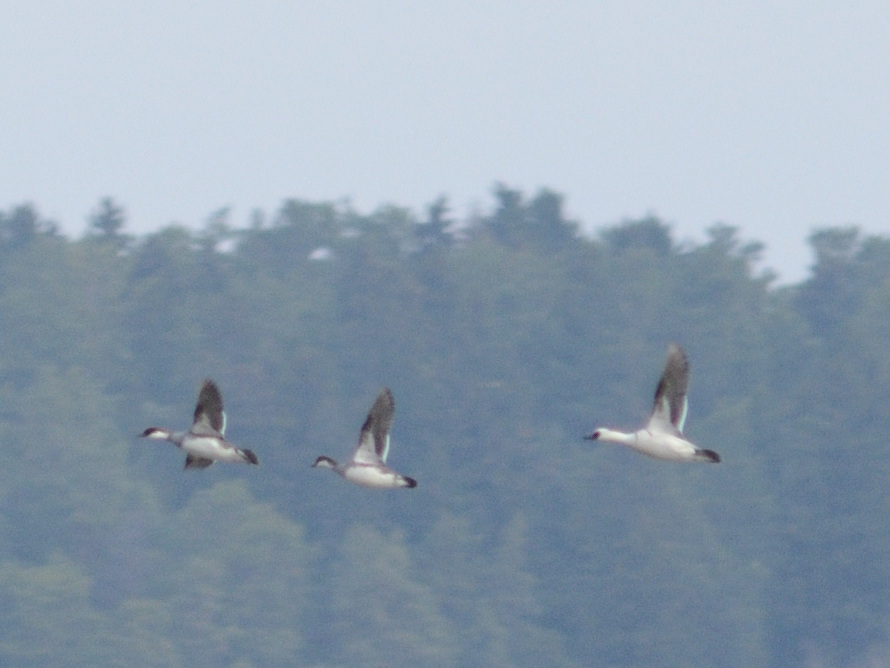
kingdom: Animalia
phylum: Chordata
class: Aves
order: Anseriformes
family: Anatidae
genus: Mergellus
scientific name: Mergellus albellus
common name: Smew
